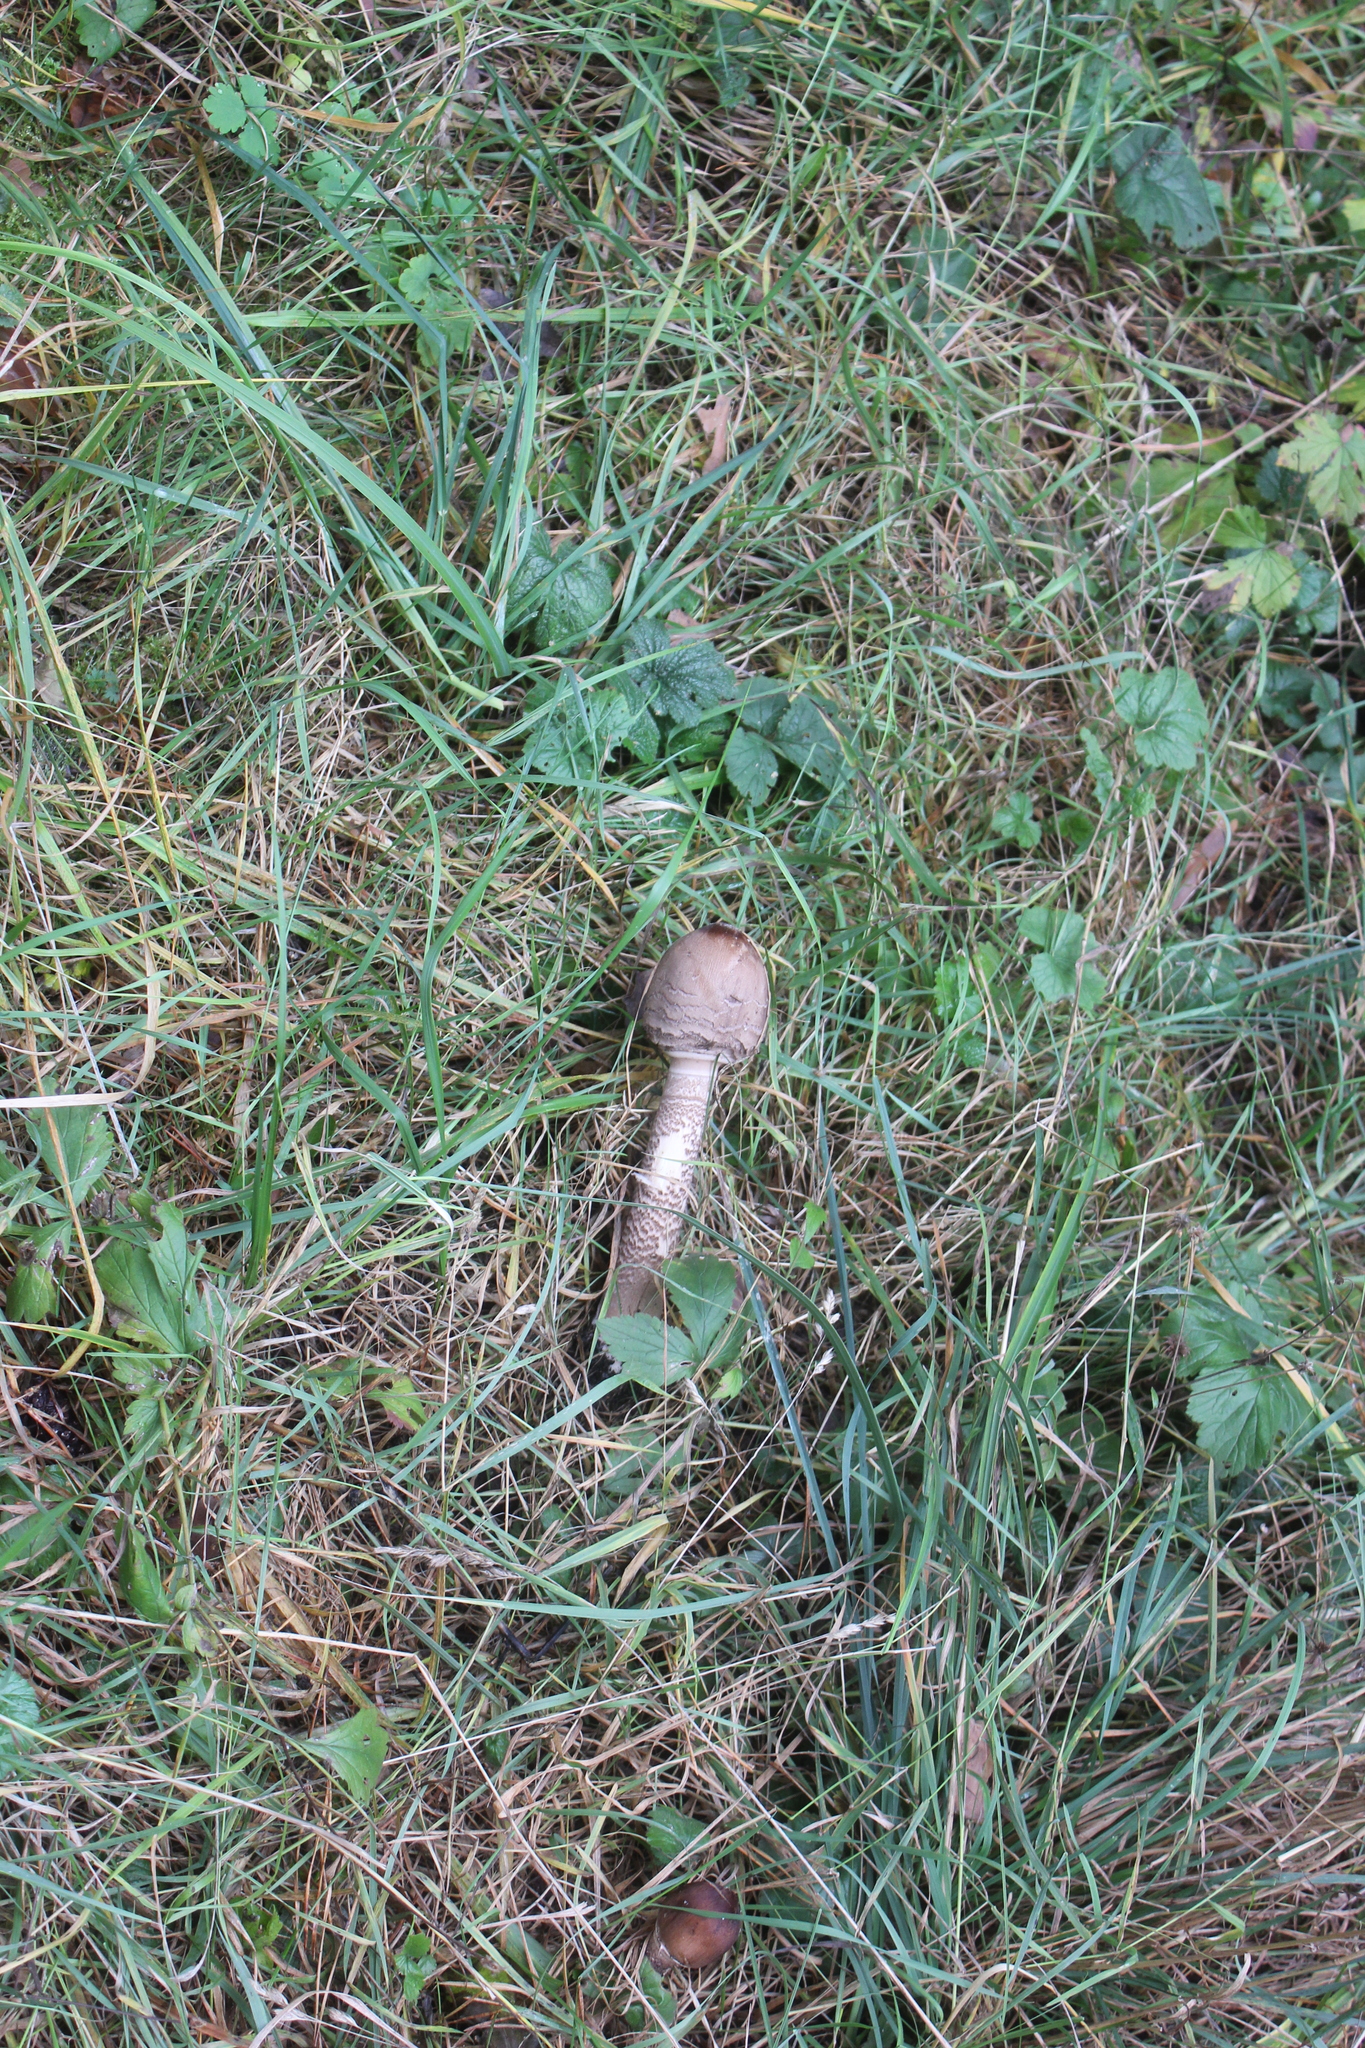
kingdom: Fungi
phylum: Basidiomycota
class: Agaricomycetes
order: Agaricales
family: Agaricaceae
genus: Macrolepiota
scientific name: Macrolepiota procera
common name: Parasol
